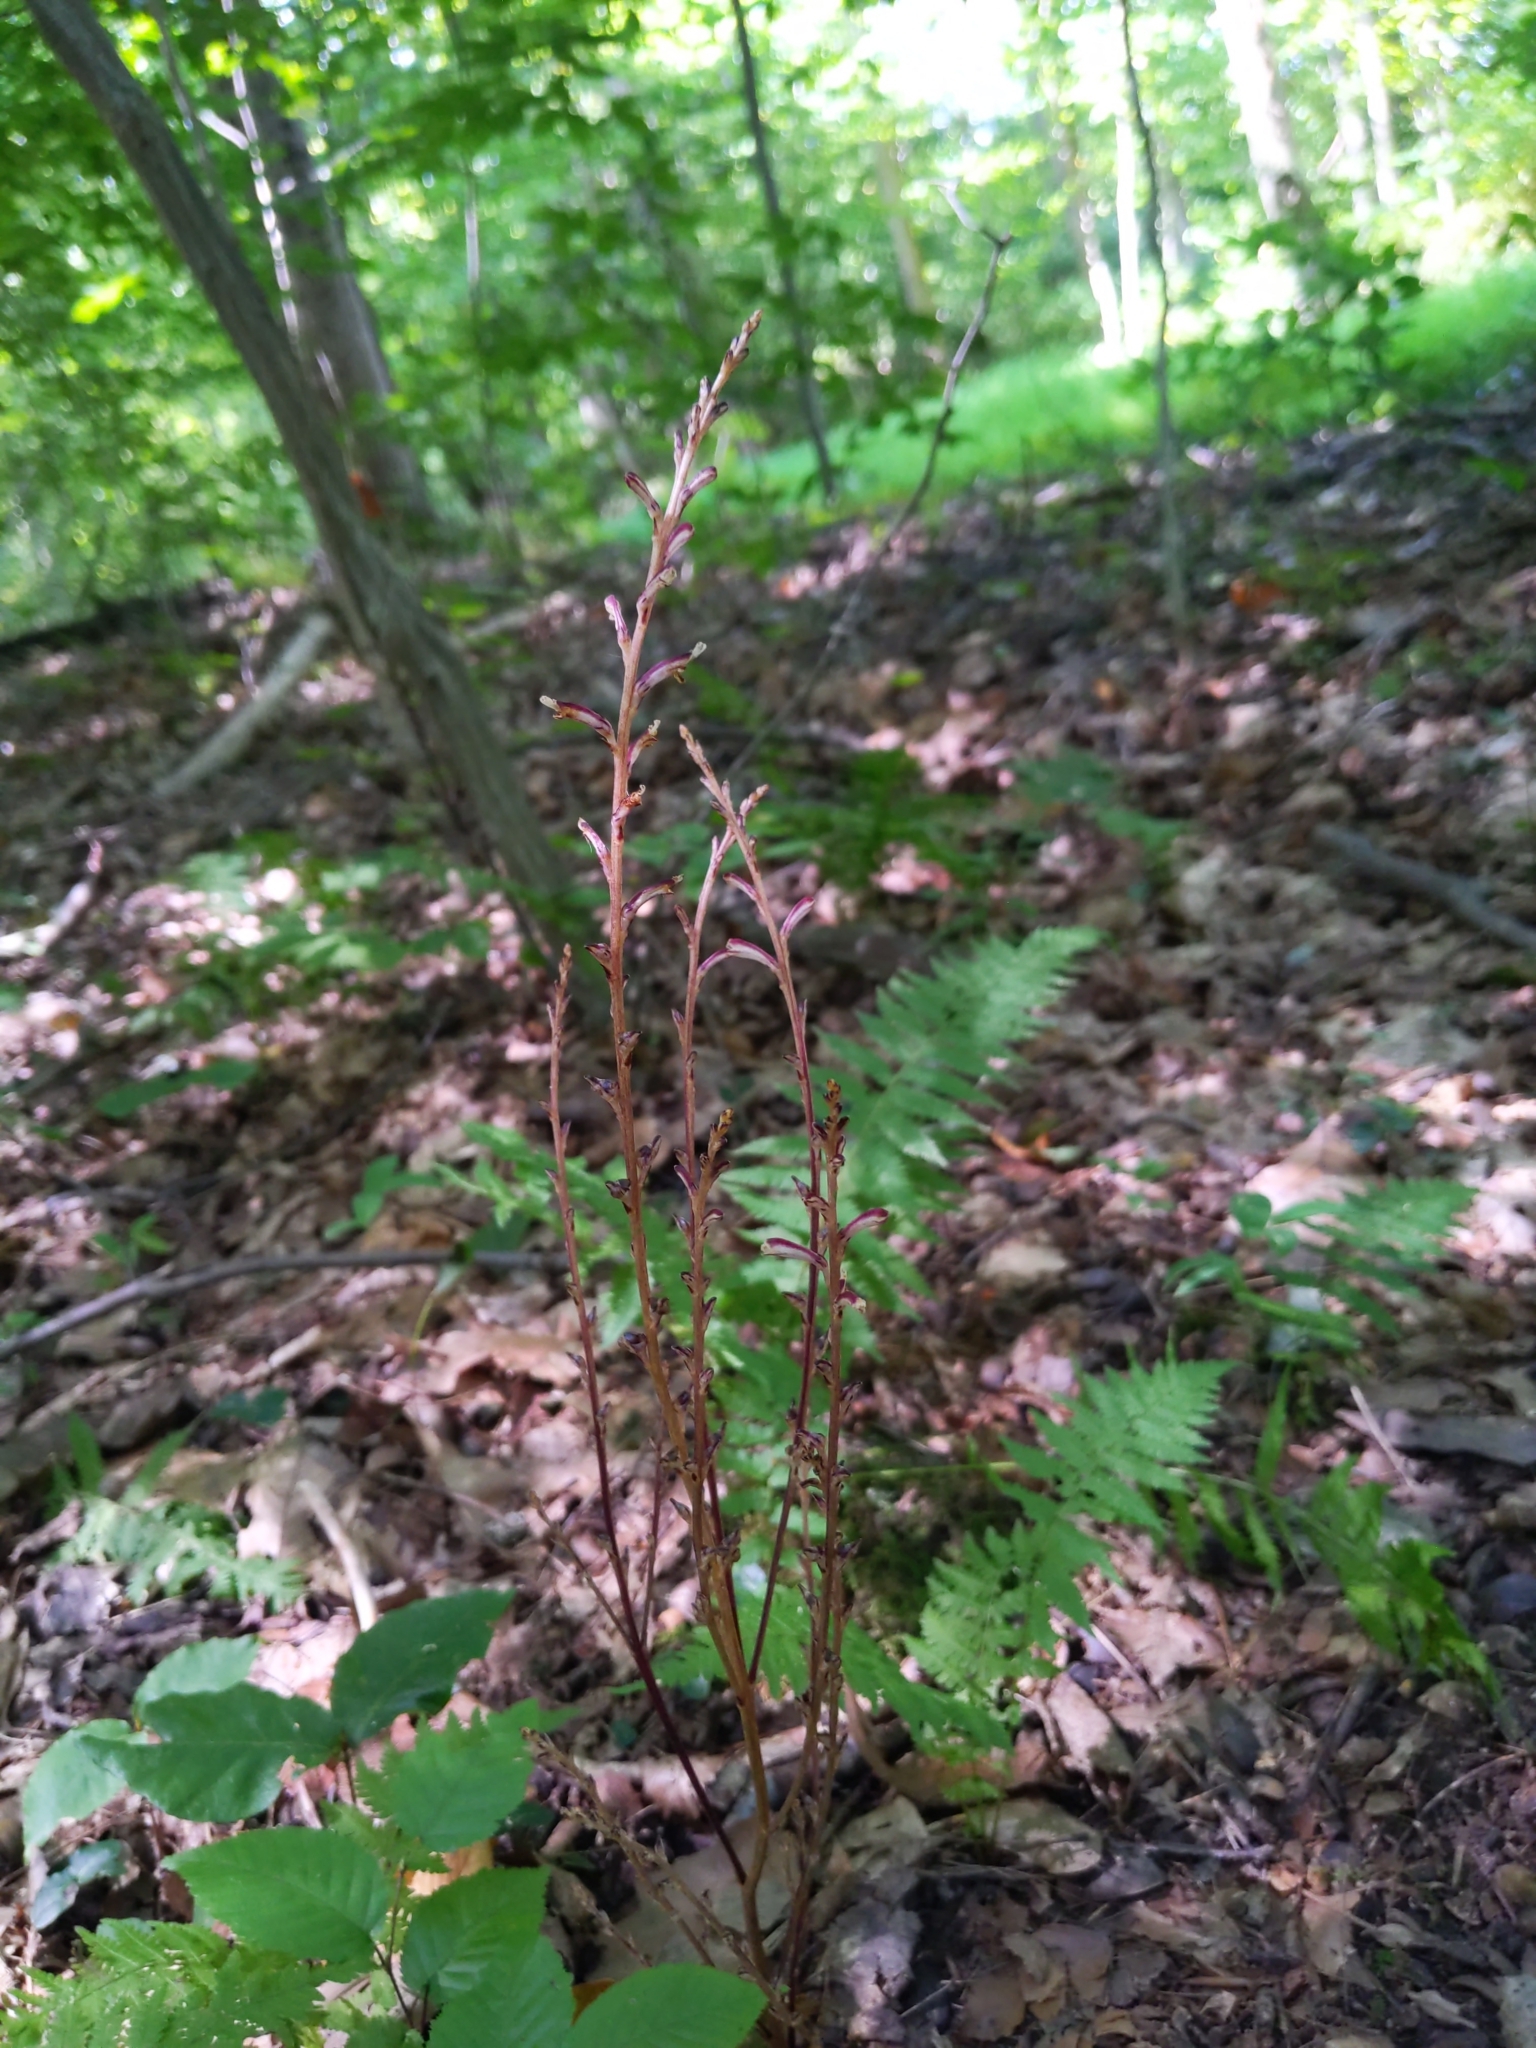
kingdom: Plantae
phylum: Tracheophyta
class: Magnoliopsida
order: Lamiales
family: Orobanchaceae
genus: Epifagus
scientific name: Epifagus virginiana
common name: Beechdrops
